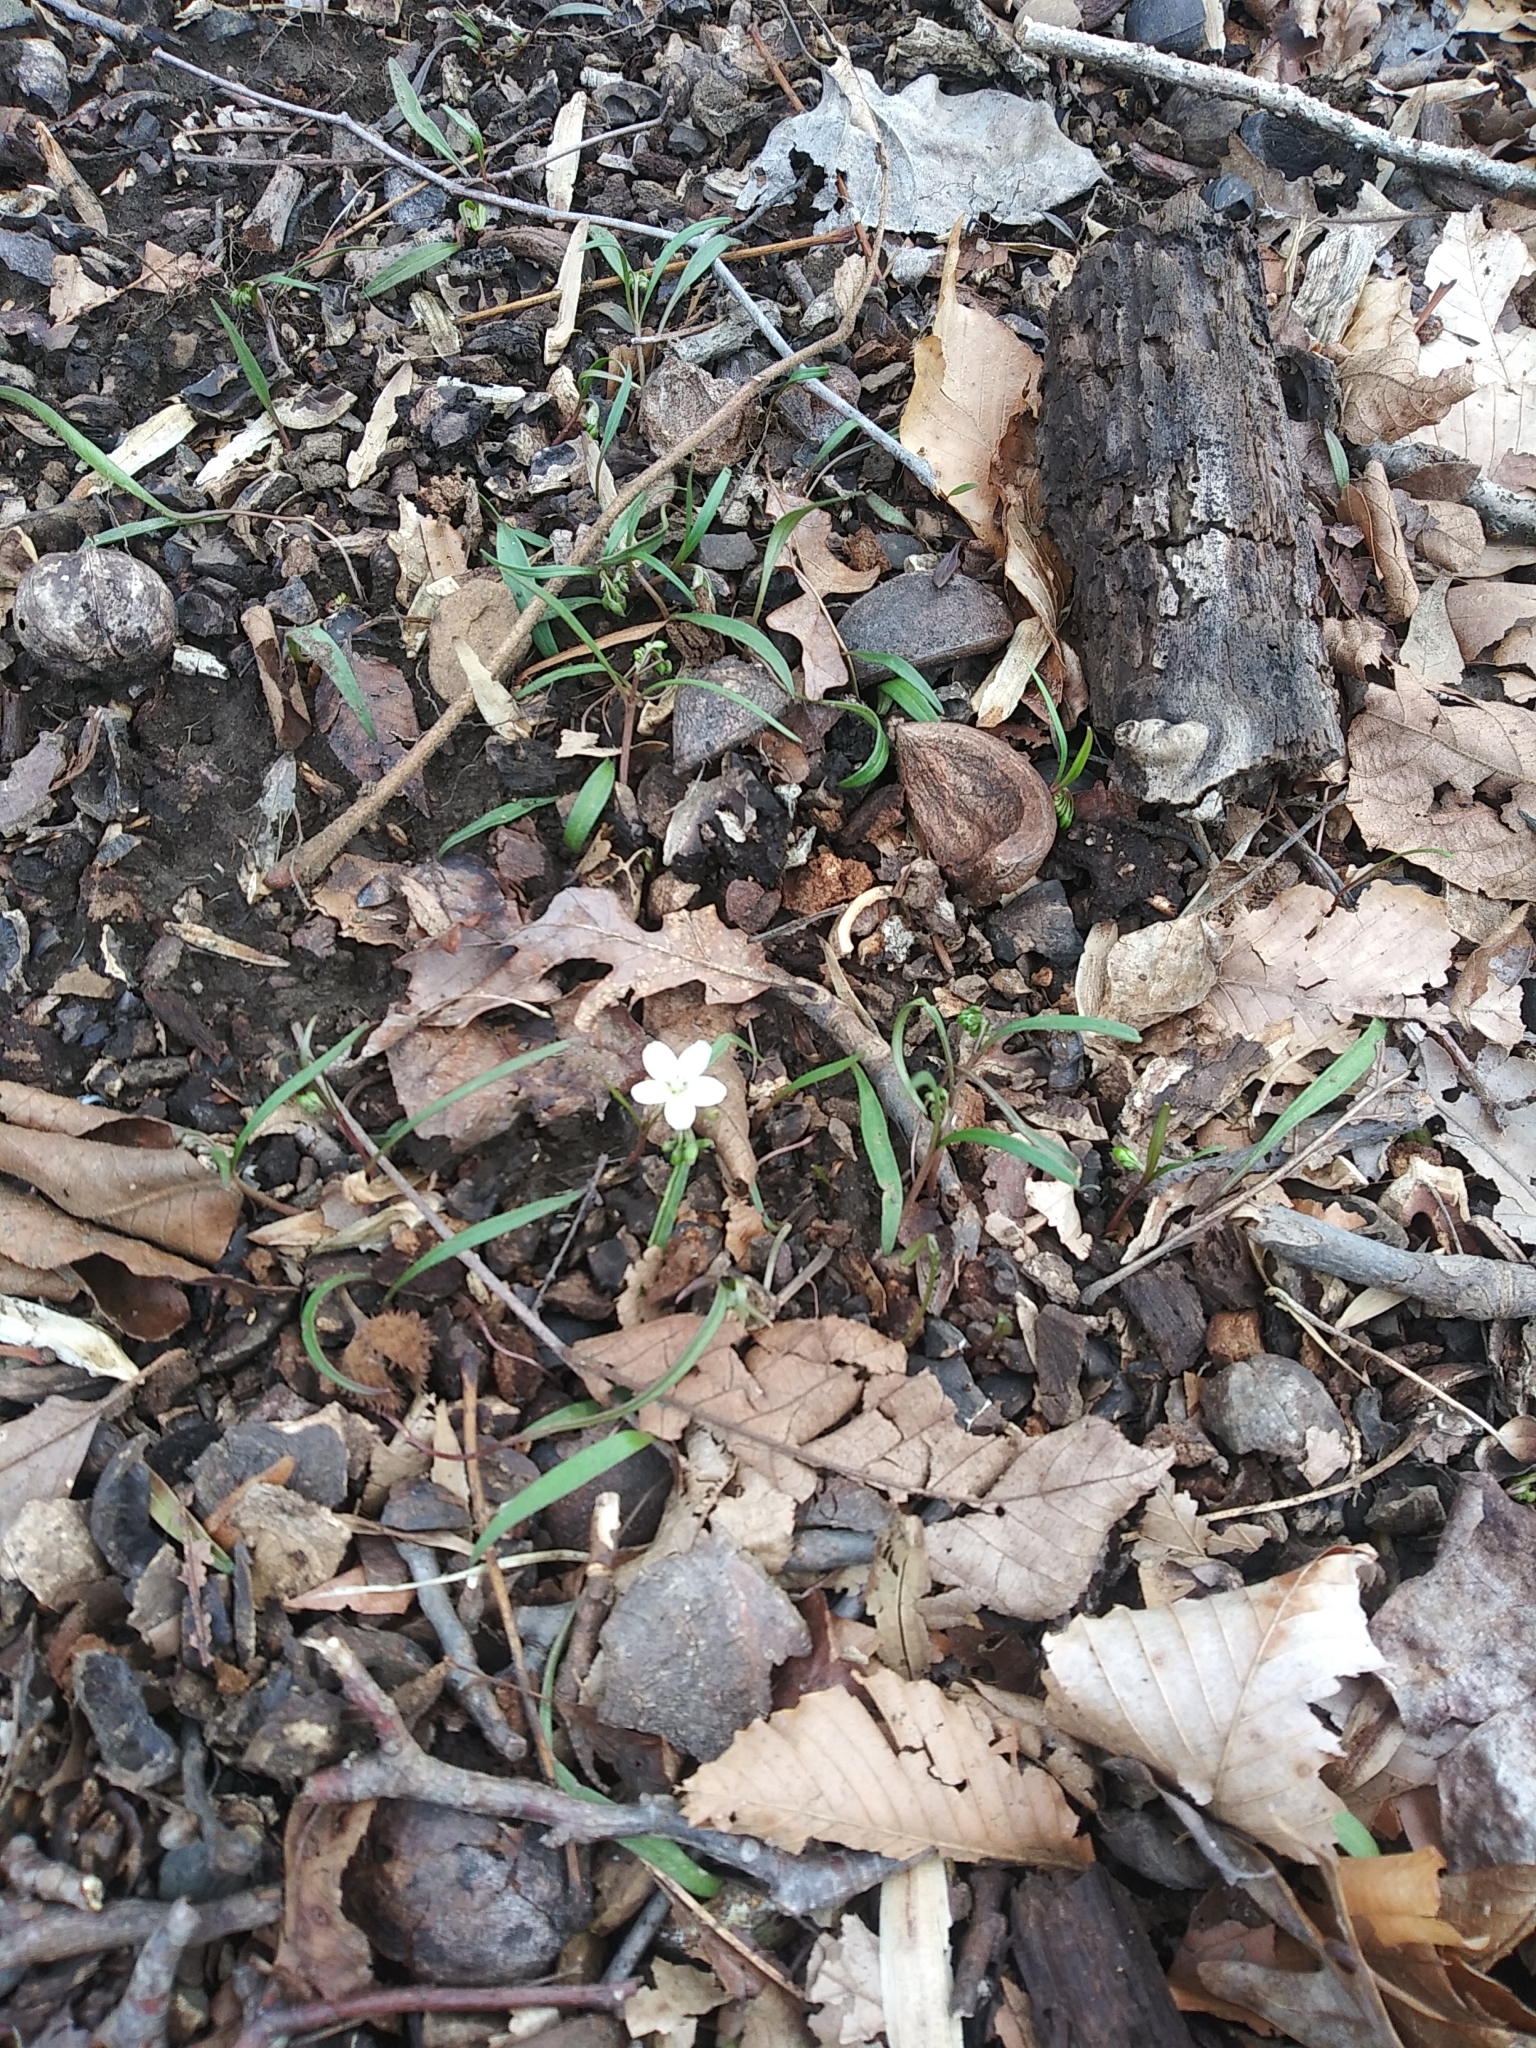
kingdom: Plantae
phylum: Tracheophyta
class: Magnoliopsida
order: Caryophyllales
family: Montiaceae
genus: Claytonia
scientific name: Claytonia virginica
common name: Virginia springbeauty
